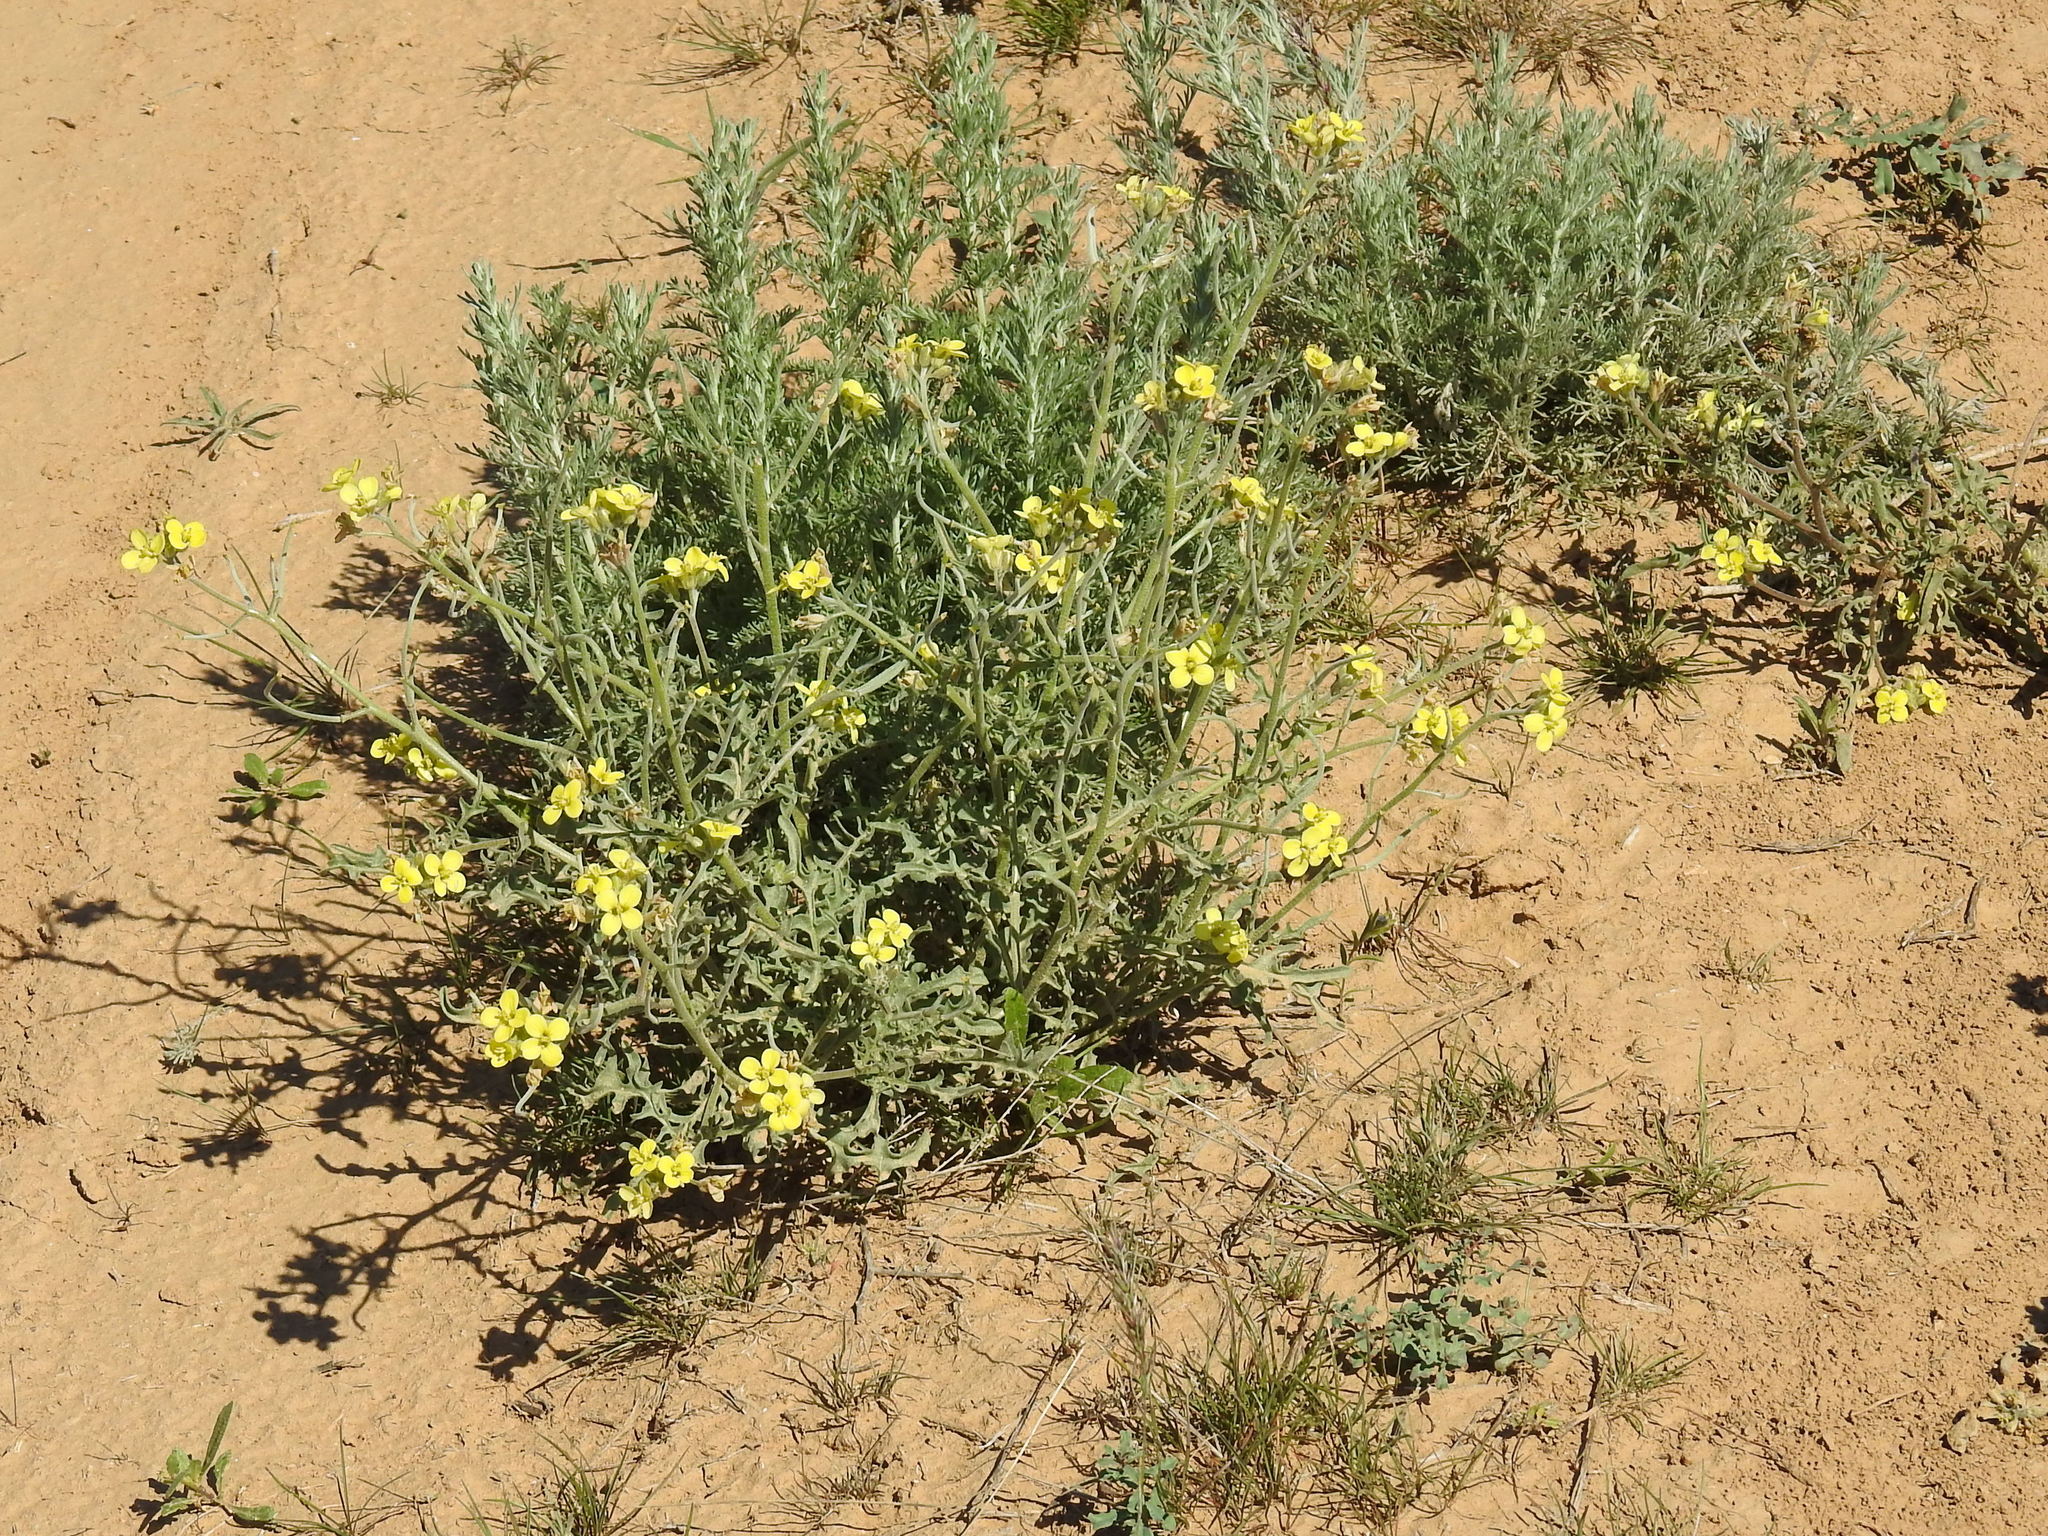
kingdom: Plantae
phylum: Tracheophyta
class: Magnoliopsida
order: Brassicales
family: Brassicaceae
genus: Sterigmostemum
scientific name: Sterigmostemum caspicum
